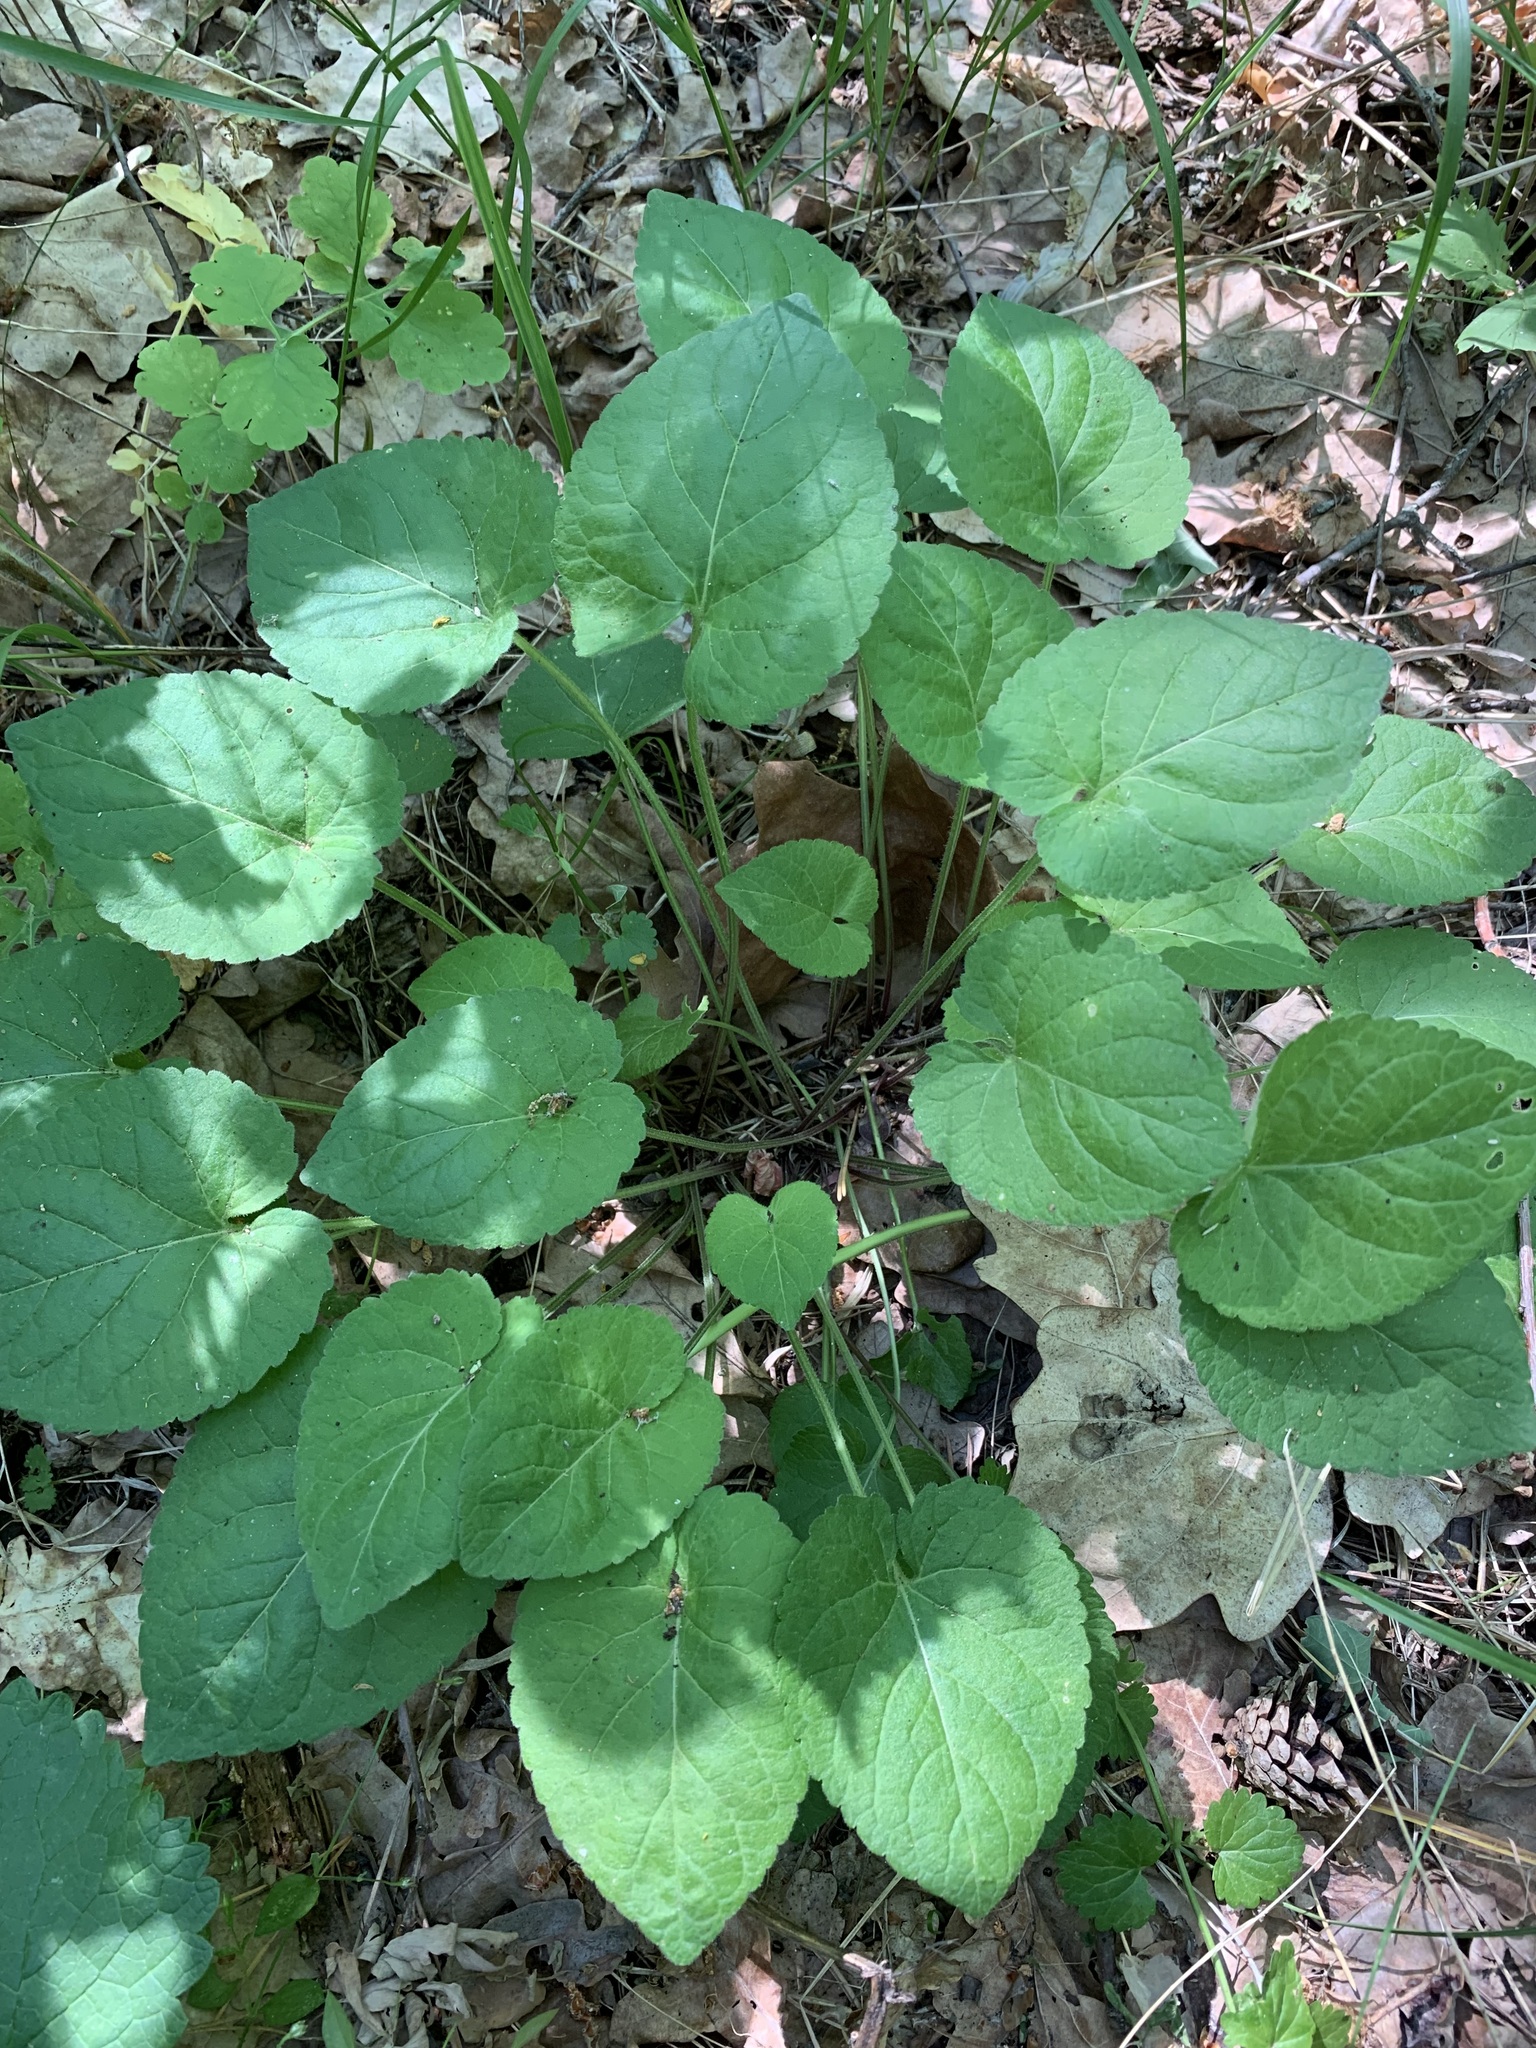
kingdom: Plantae
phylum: Tracheophyta
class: Magnoliopsida
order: Malpighiales
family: Violaceae
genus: Viola
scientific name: Viola collina
